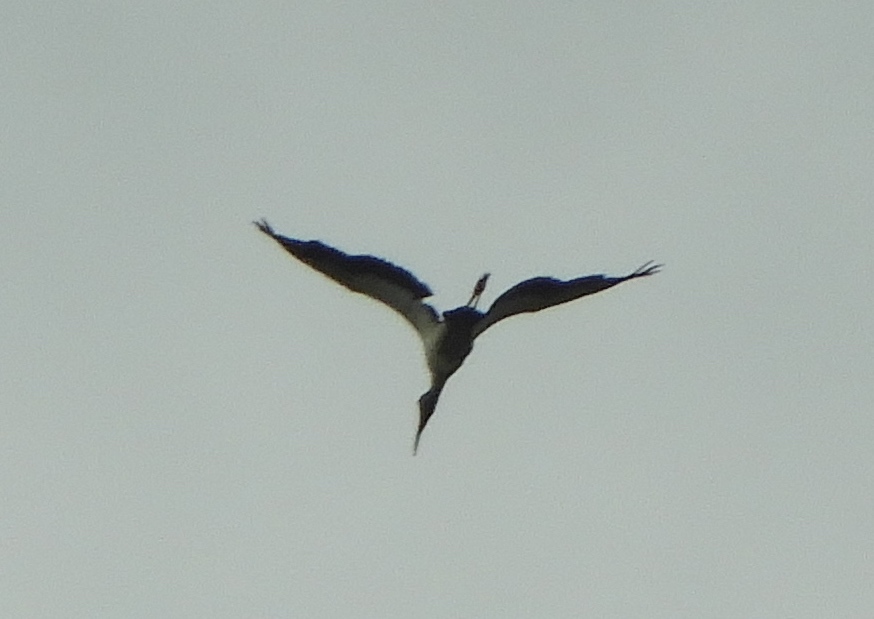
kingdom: Animalia
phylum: Chordata
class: Aves
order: Ciconiiformes
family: Ciconiidae
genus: Mycteria
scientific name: Mycteria americana
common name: Wood stork
